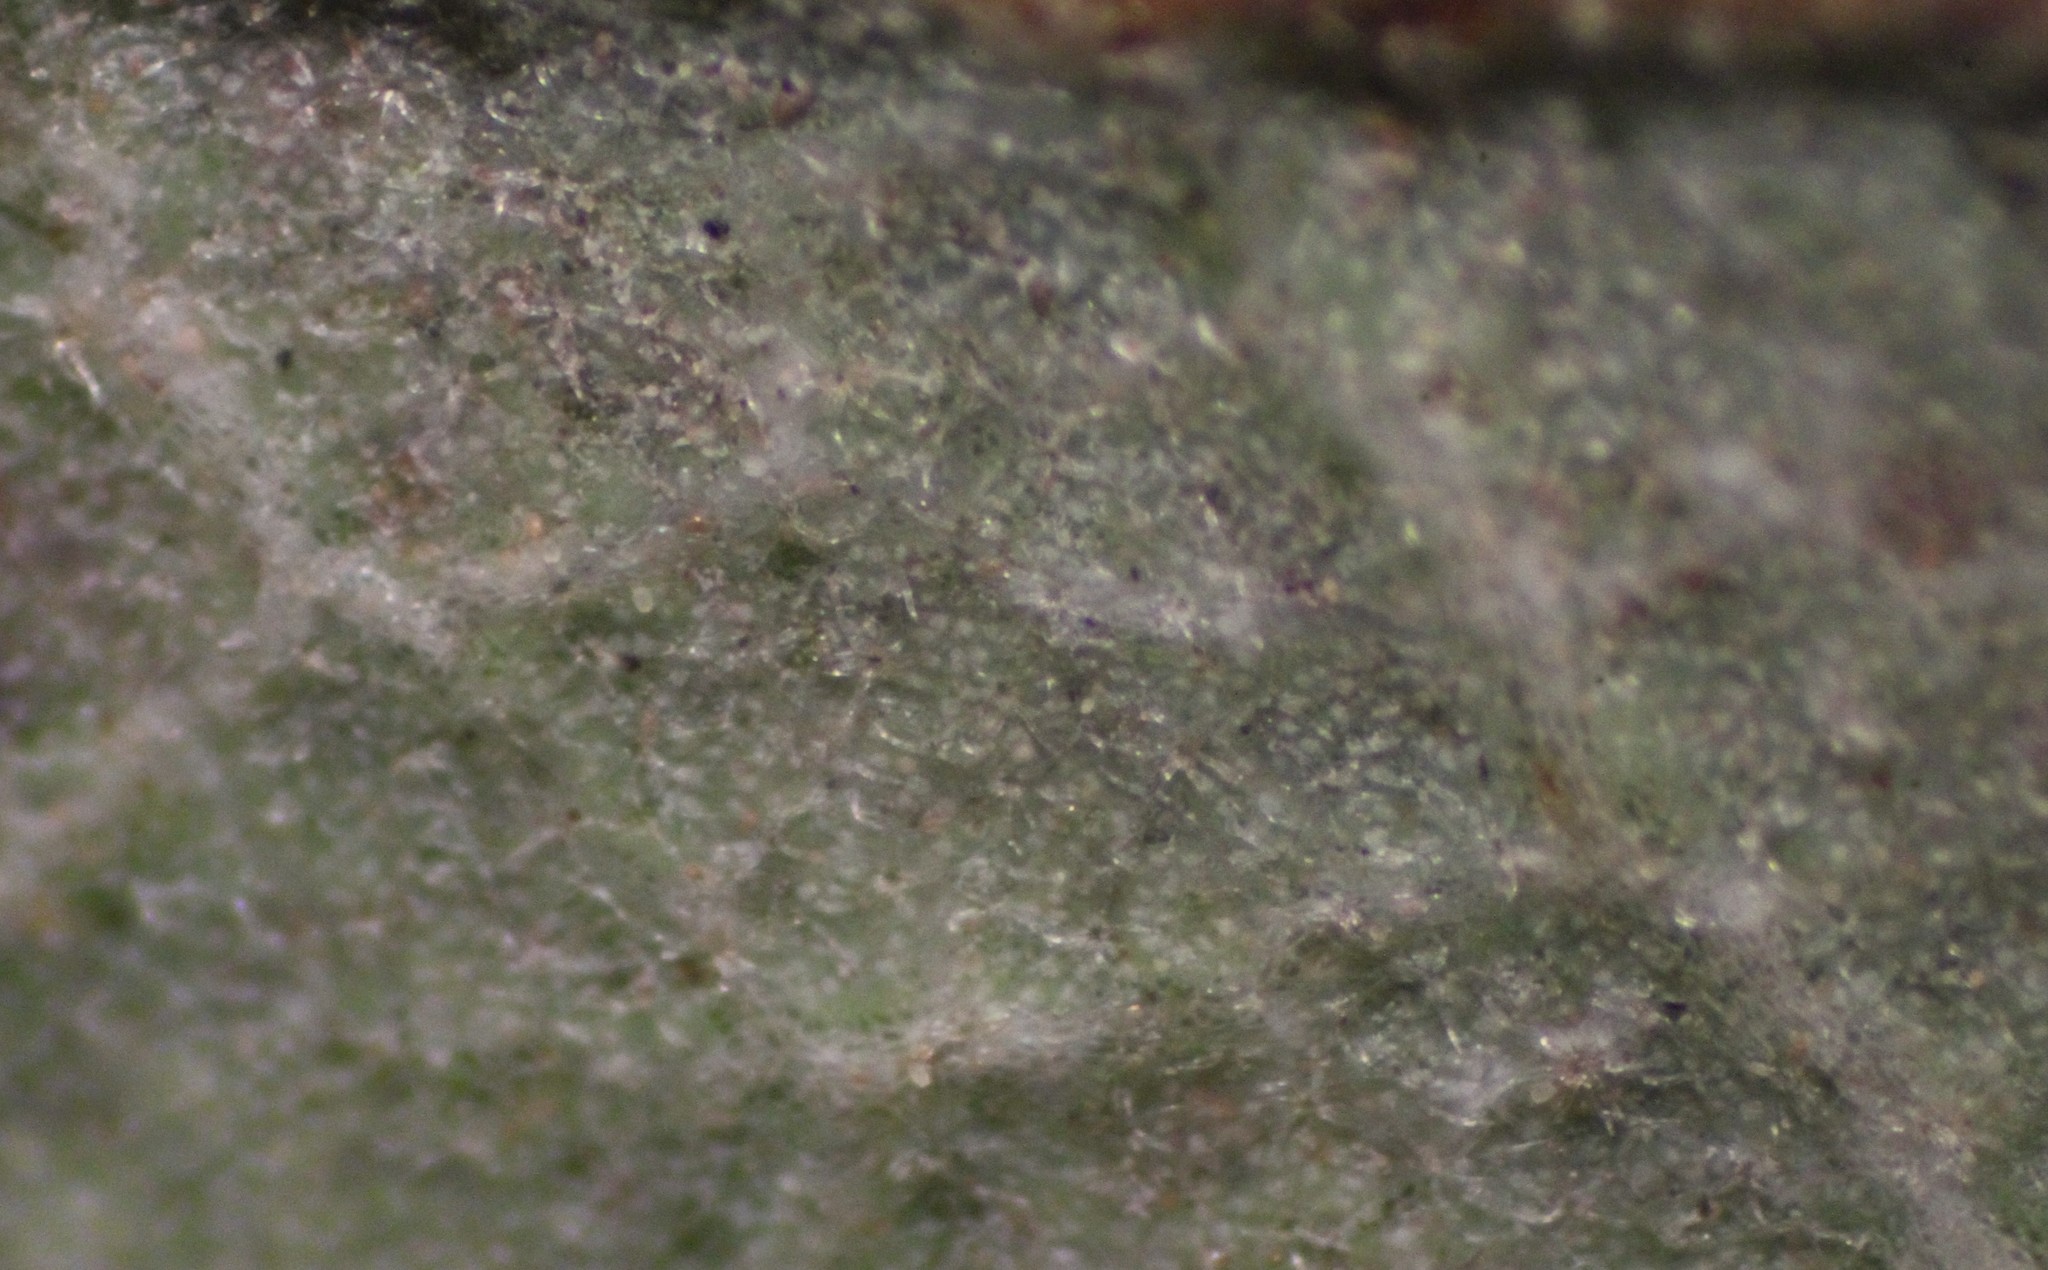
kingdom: Plantae
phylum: Tracheophyta
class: Magnoliopsida
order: Fagales
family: Fagaceae
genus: Quercus
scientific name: Quercus acutidens
